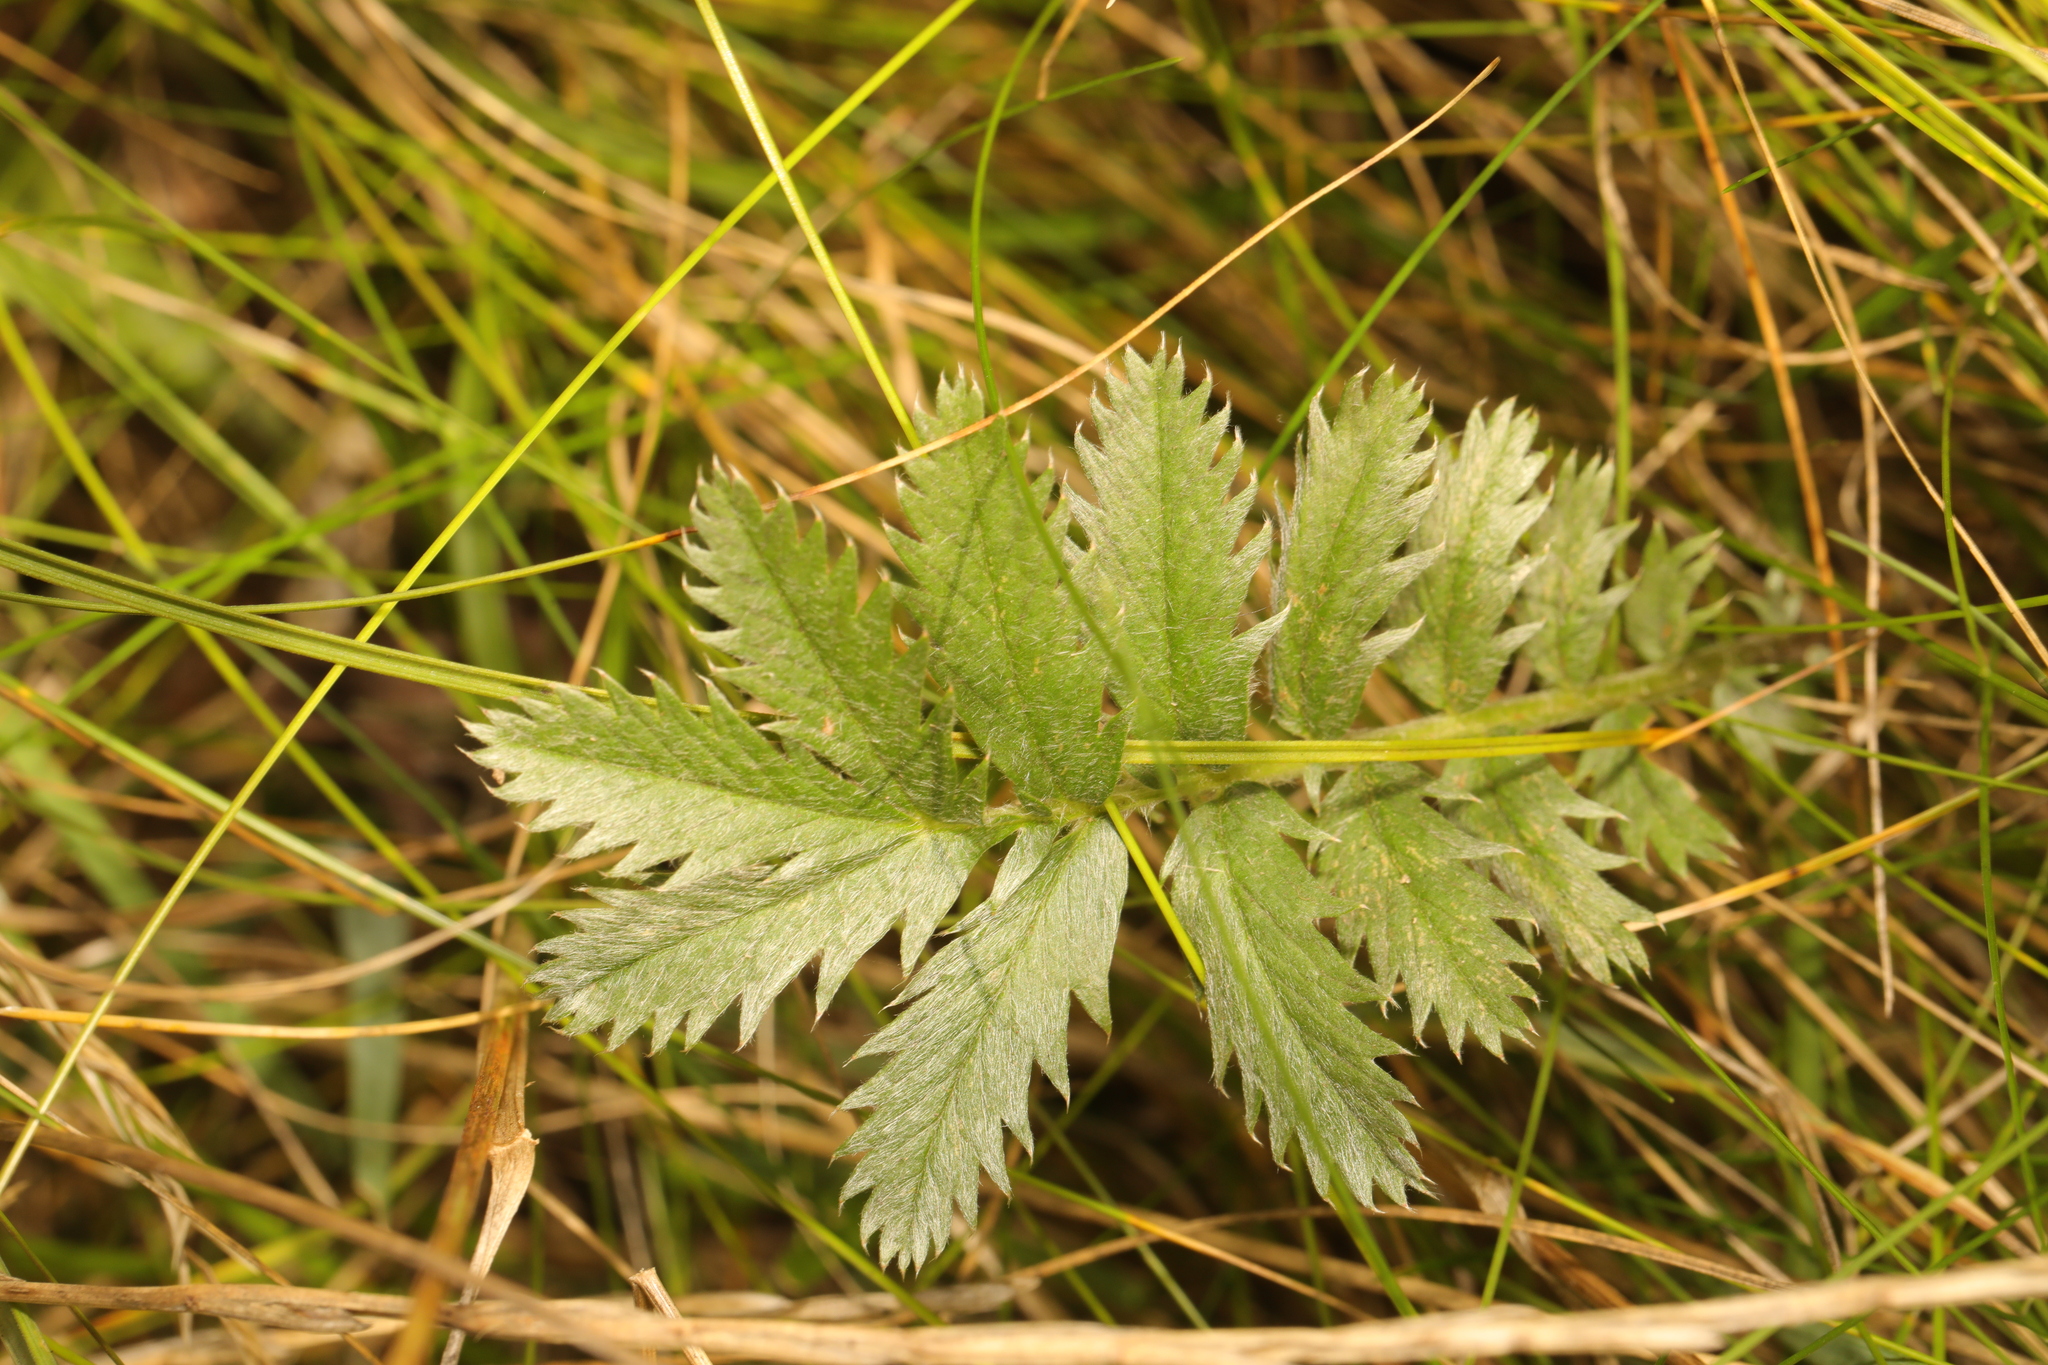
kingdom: Plantae
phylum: Tracheophyta
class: Magnoliopsida
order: Rosales
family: Rosaceae
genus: Argentina
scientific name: Argentina anserina
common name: Common silverweed
